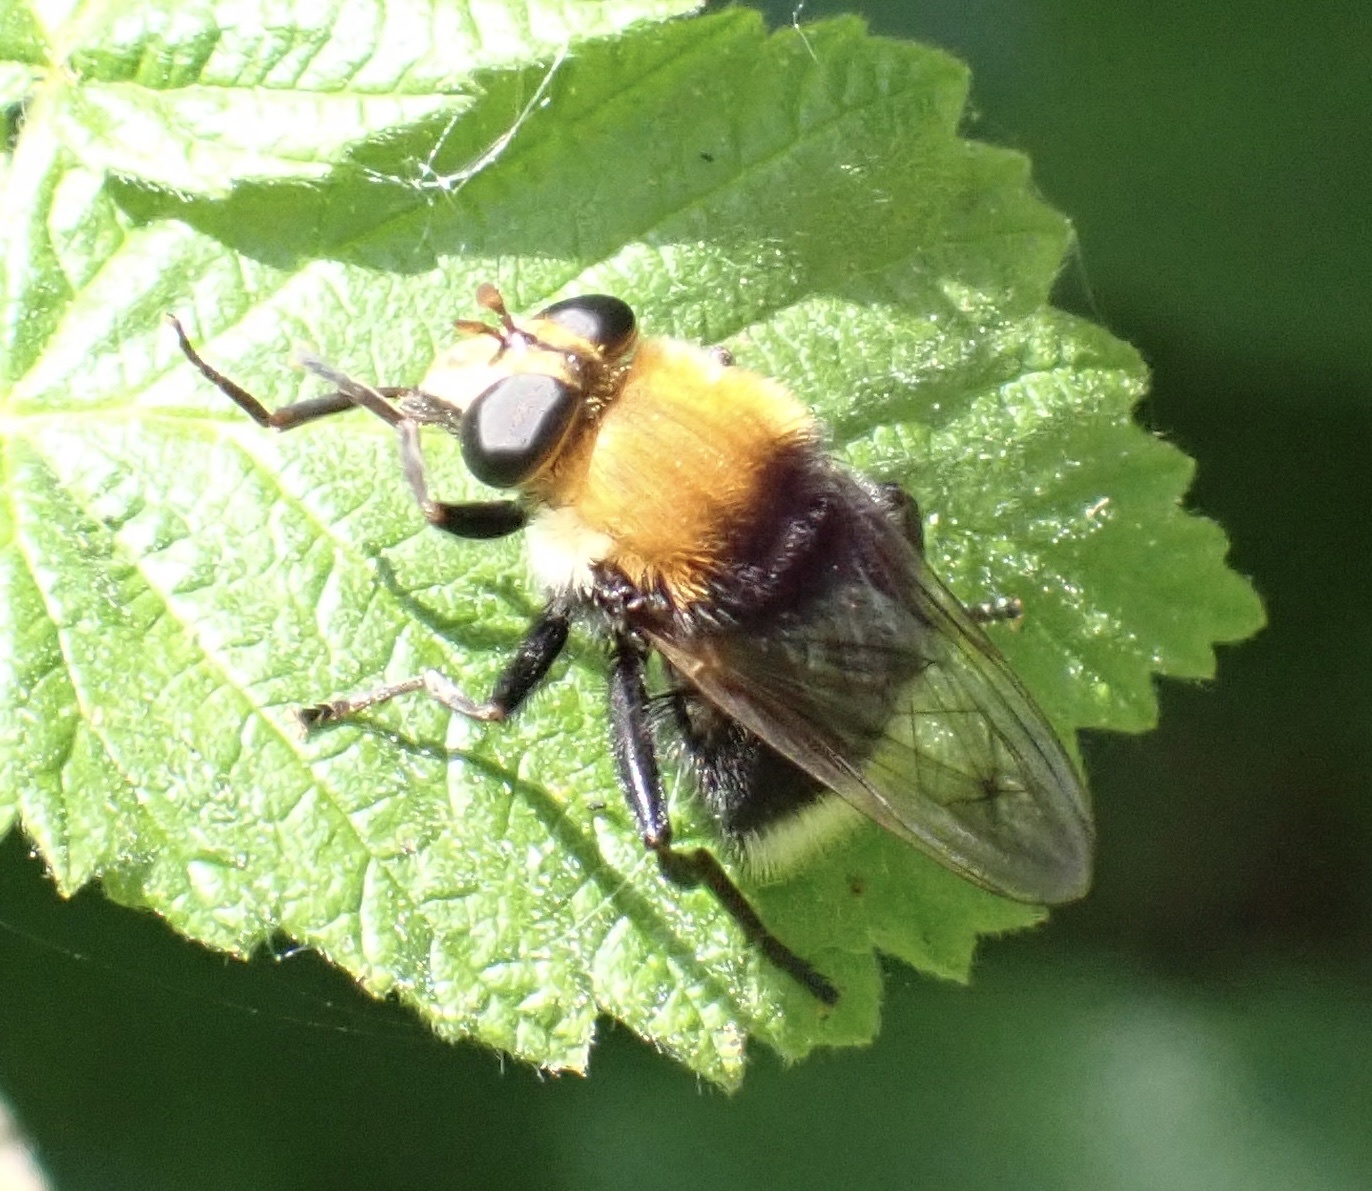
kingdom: Animalia
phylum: Arthropoda
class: Insecta
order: Diptera
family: Syrphidae
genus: Criorhina
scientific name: Criorhina berberina
